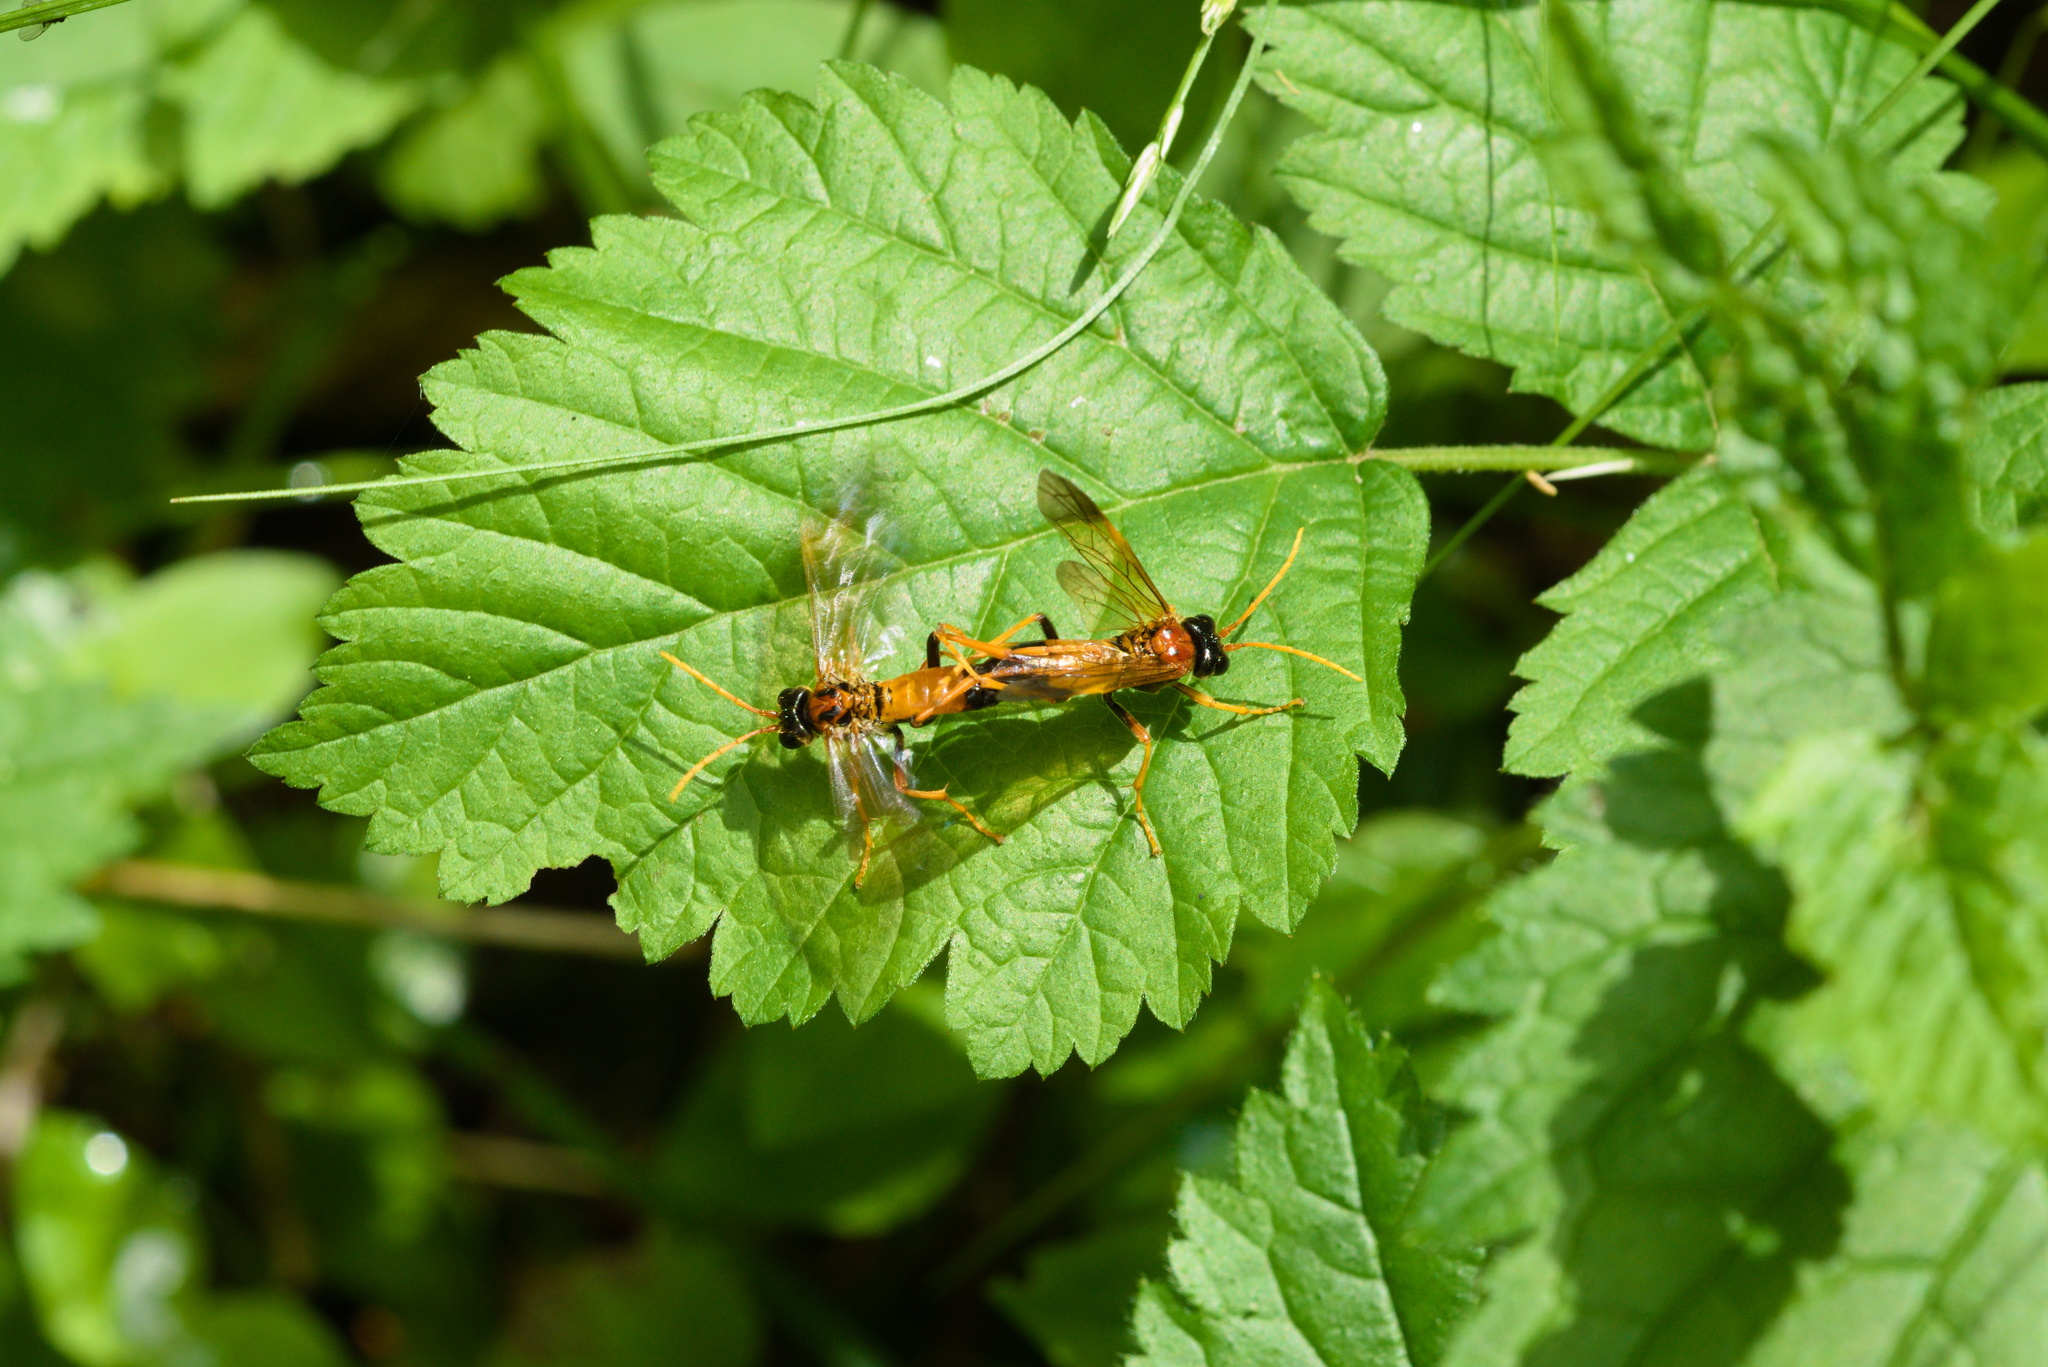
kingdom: Animalia
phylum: Arthropoda
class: Insecta
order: Hymenoptera
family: Tenthredinidae
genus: Tenthredo
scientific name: Tenthredo campestris
